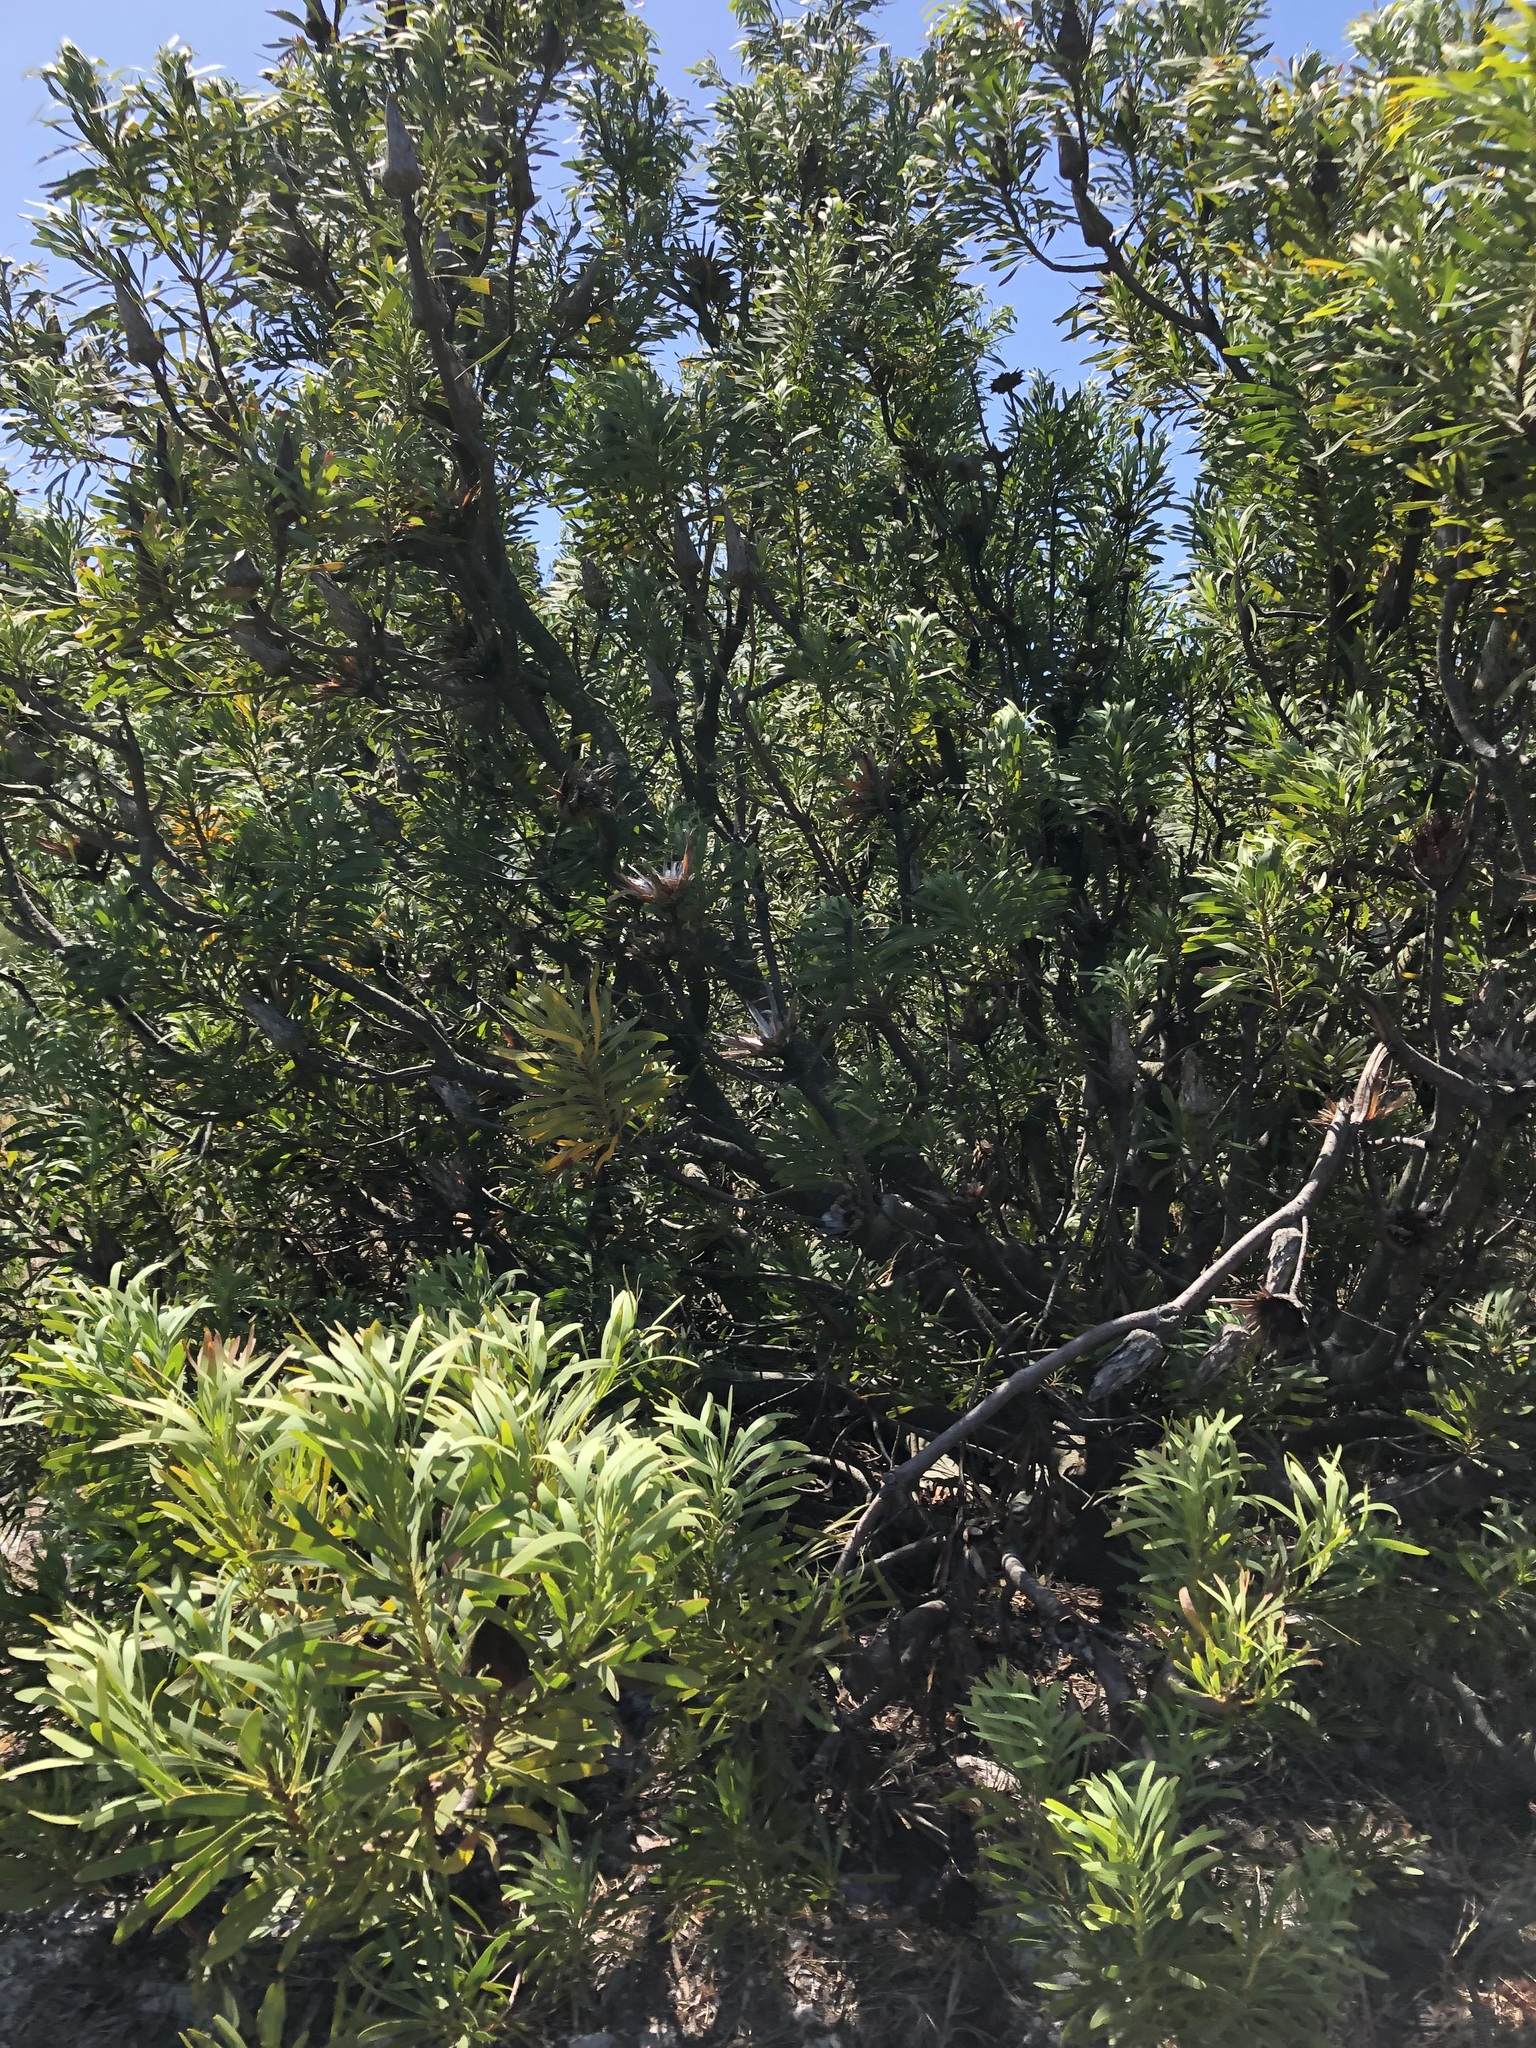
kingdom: Plantae
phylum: Tracheophyta
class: Magnoliopsida
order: Proteales
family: Proteaceae
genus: Protea
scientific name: Protea repens
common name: Sugarbush
